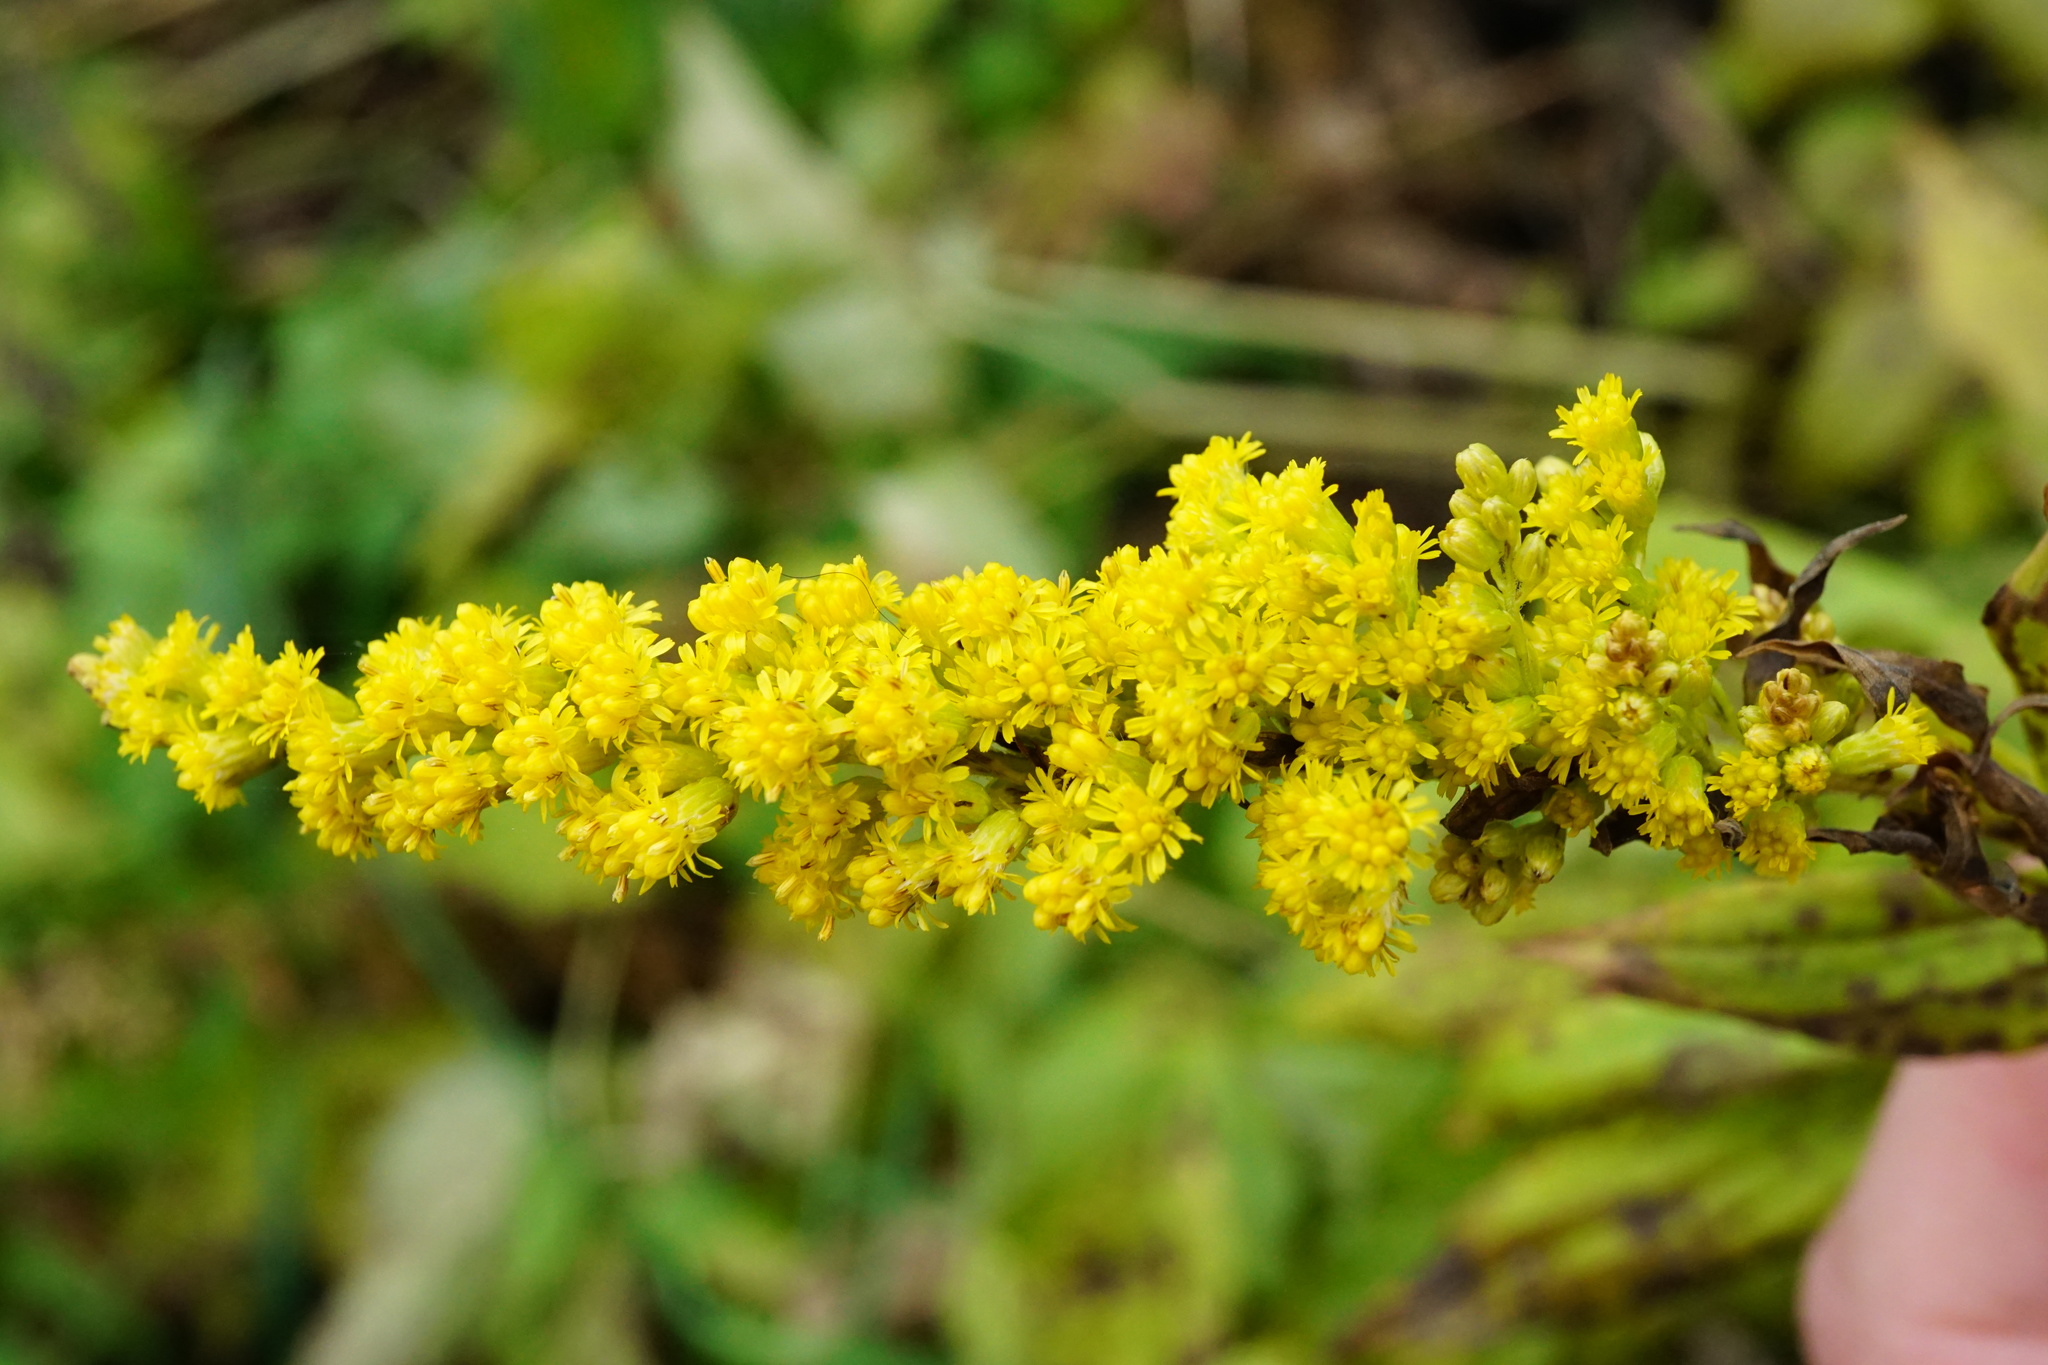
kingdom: Plantae
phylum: Tracheophyta
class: Magnoliopsida
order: Asterales
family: Asteraceae
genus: Solidago
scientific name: Solidago canadensis
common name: Canada goldenrod
